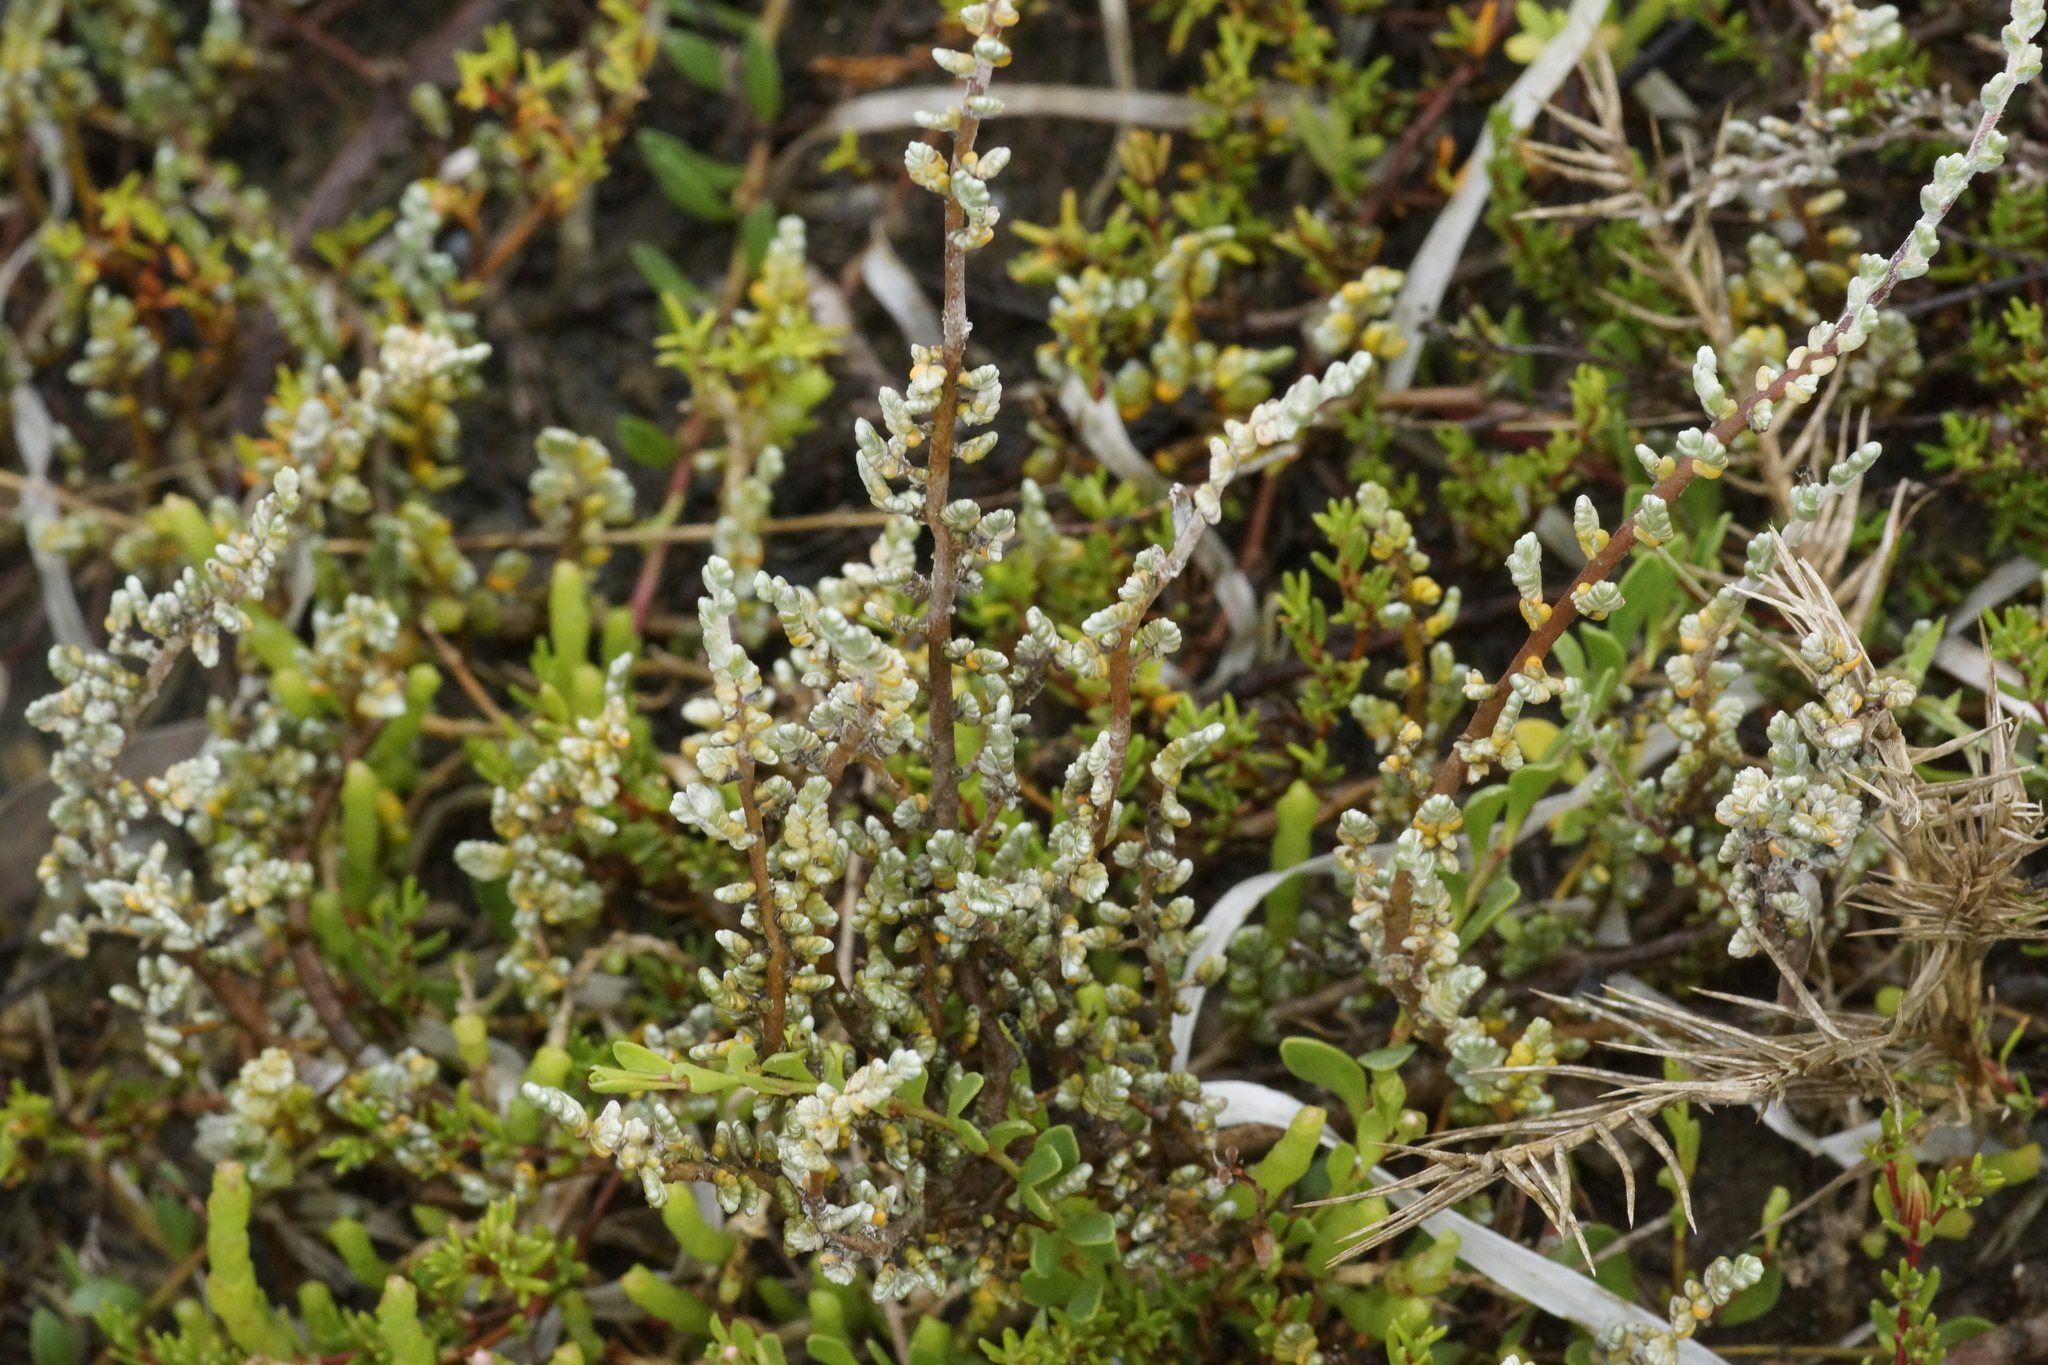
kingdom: Plantae
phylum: Tracheophyta
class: Magnoliopsida
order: Solanales
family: Convolvulaceae
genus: Wilsonia
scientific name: Wilsonia humilis
